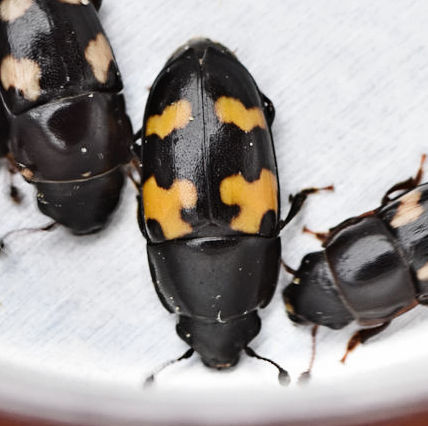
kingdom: Animalia
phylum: Arthropoda
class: Insecta
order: Coleoptera
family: Nitidulidae
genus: Glischrochilus
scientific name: Glischrochilus fasciatus
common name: Picnic beetle
